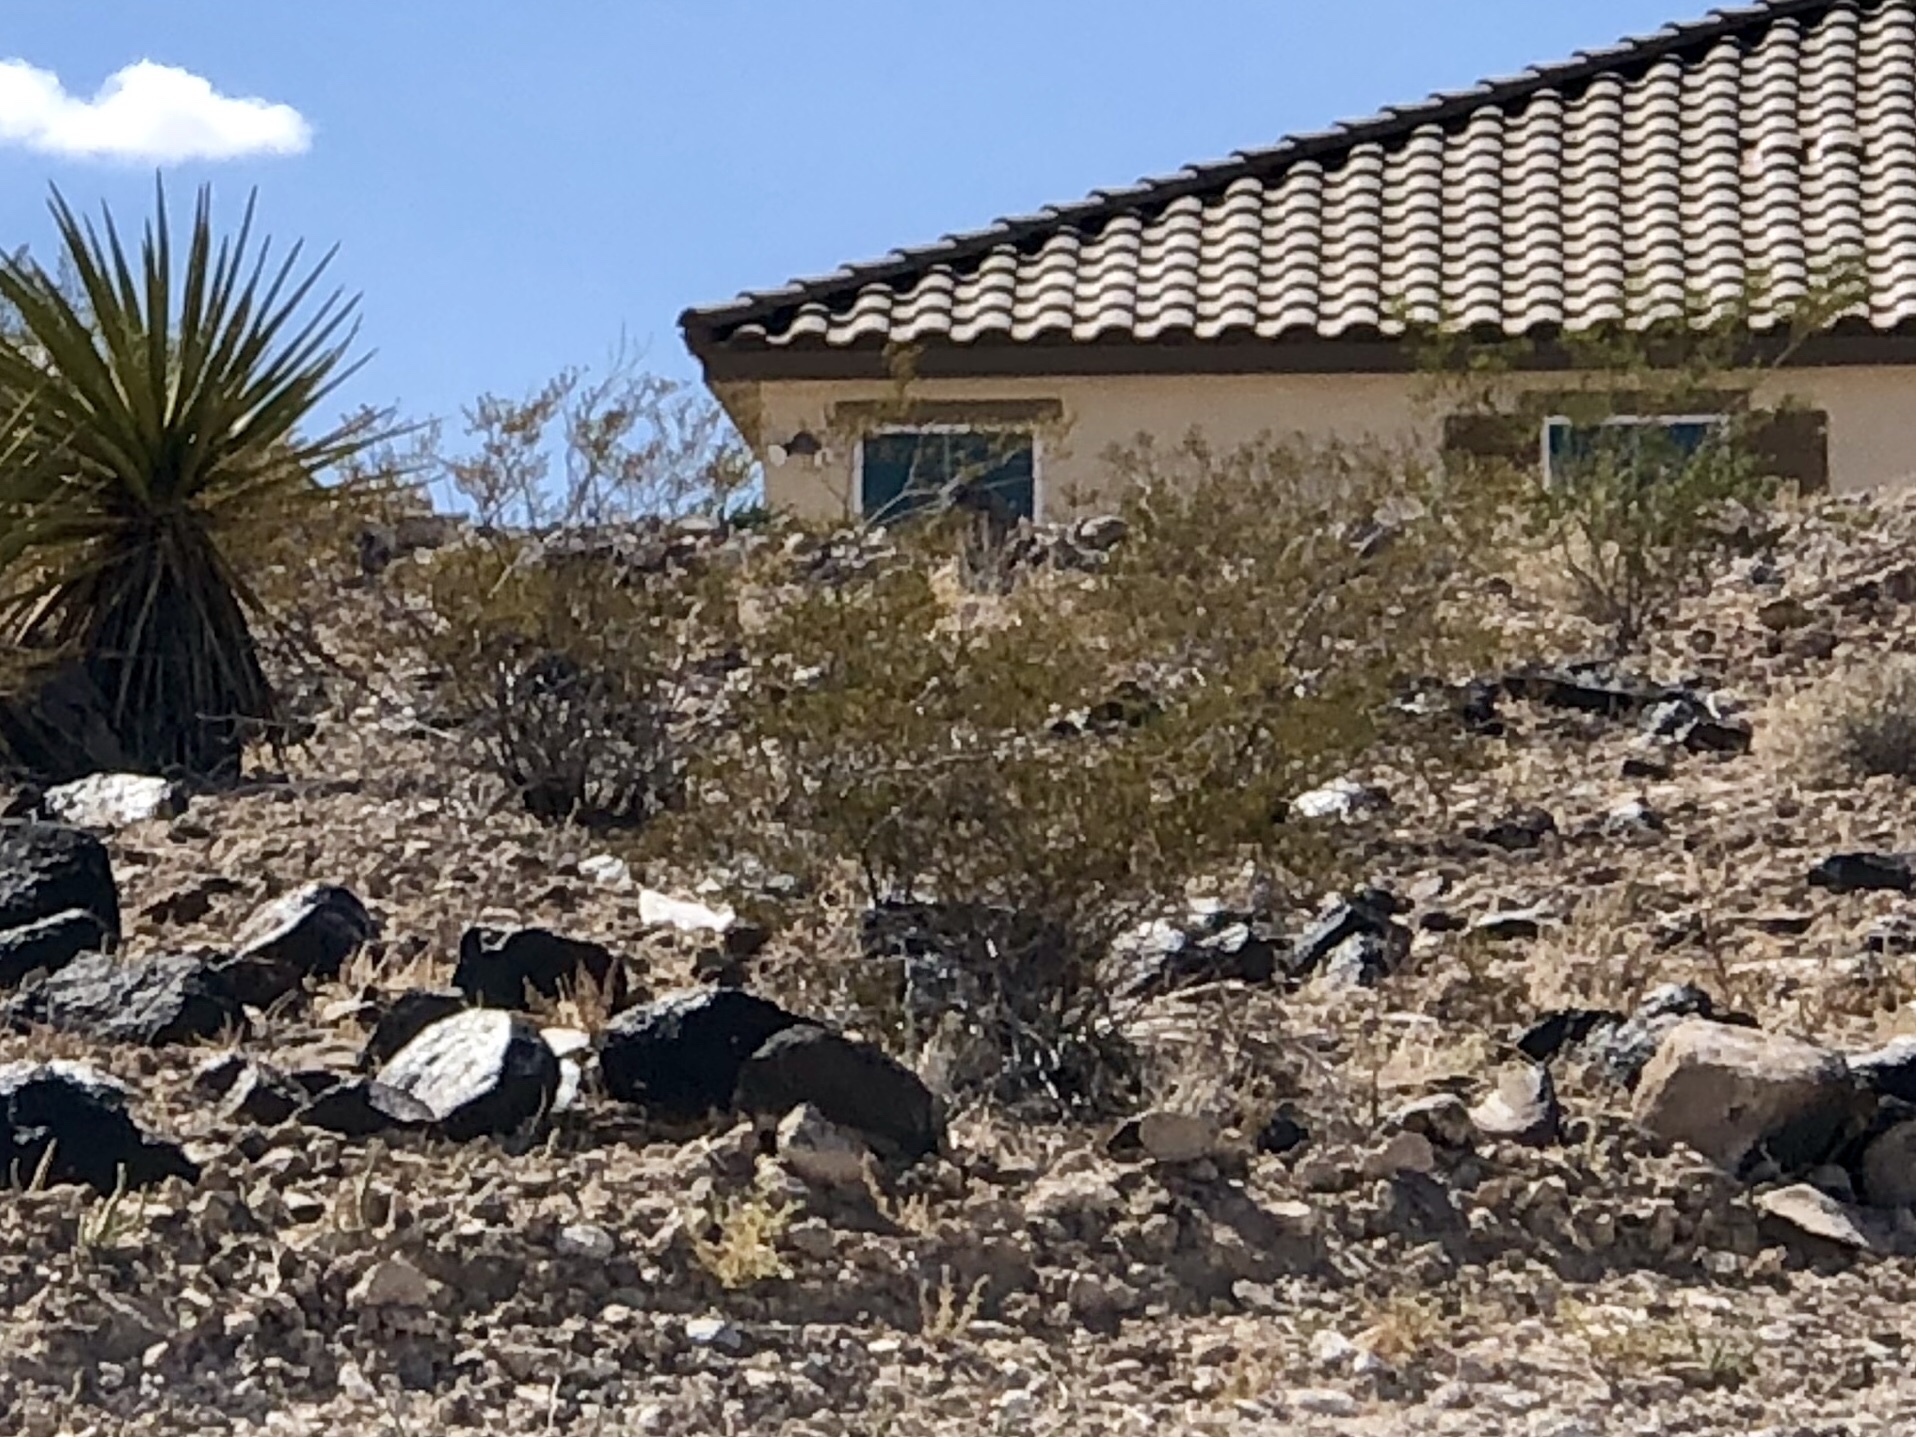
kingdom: Plantae
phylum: Tracheophyta
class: Magnoliopsida
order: Zygophyllales
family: Zygophyllaceae
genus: Larrea
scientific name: Larrea tridentata
